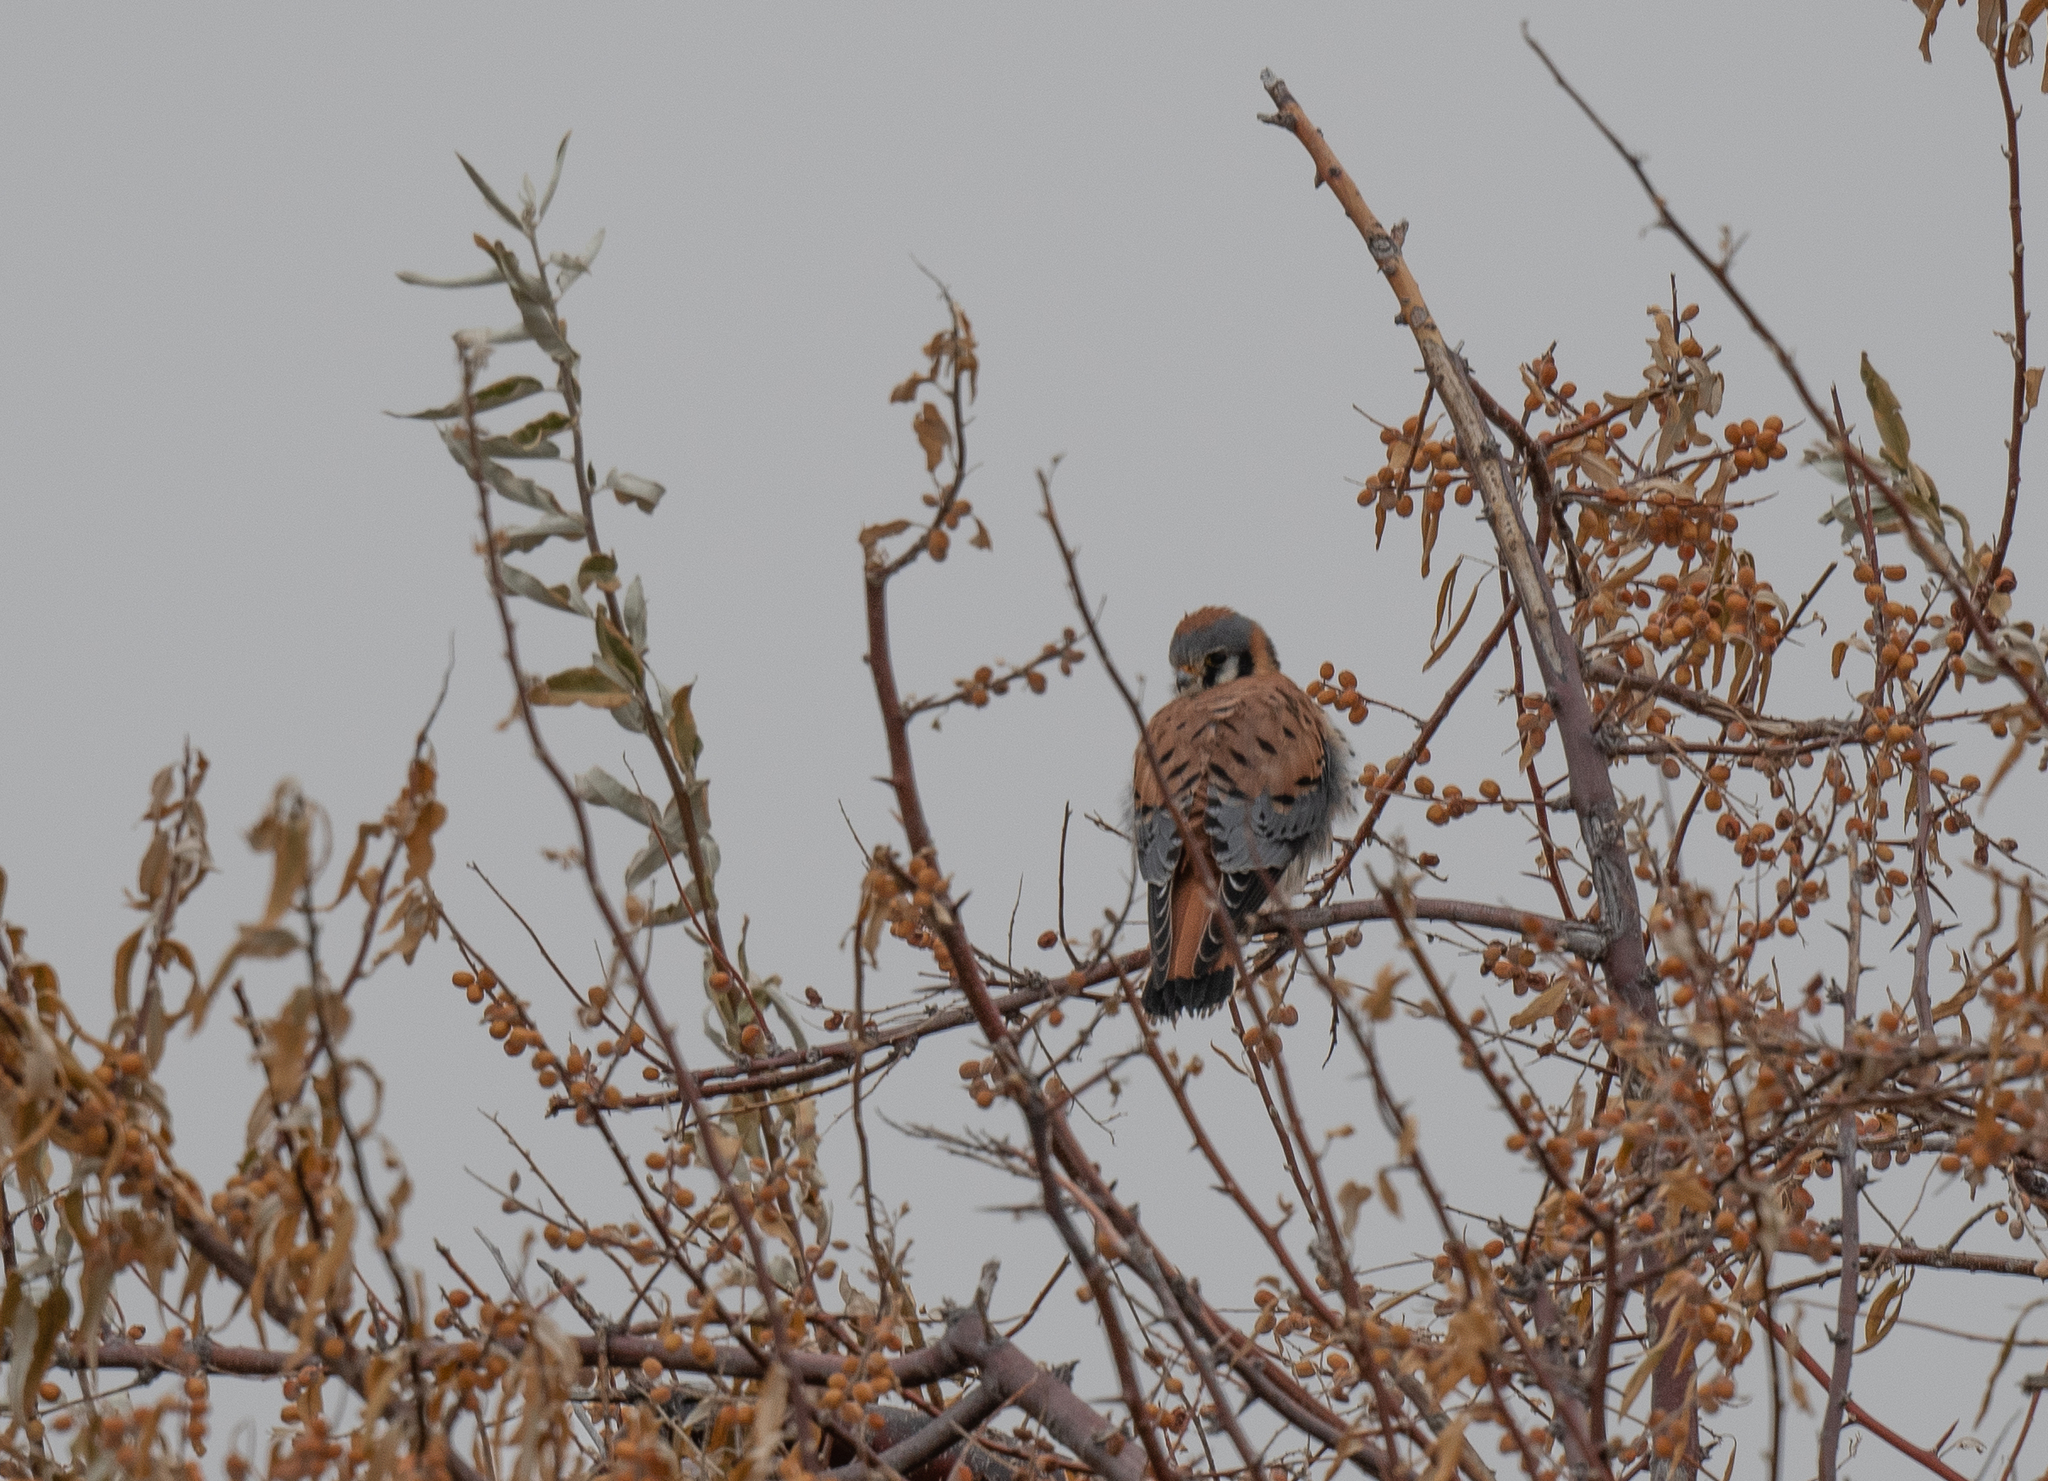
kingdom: Animalia
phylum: Chordata
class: Aves
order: Falconiformes
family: Falconidae
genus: Falco
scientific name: Falco sparverius
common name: American kestrel
